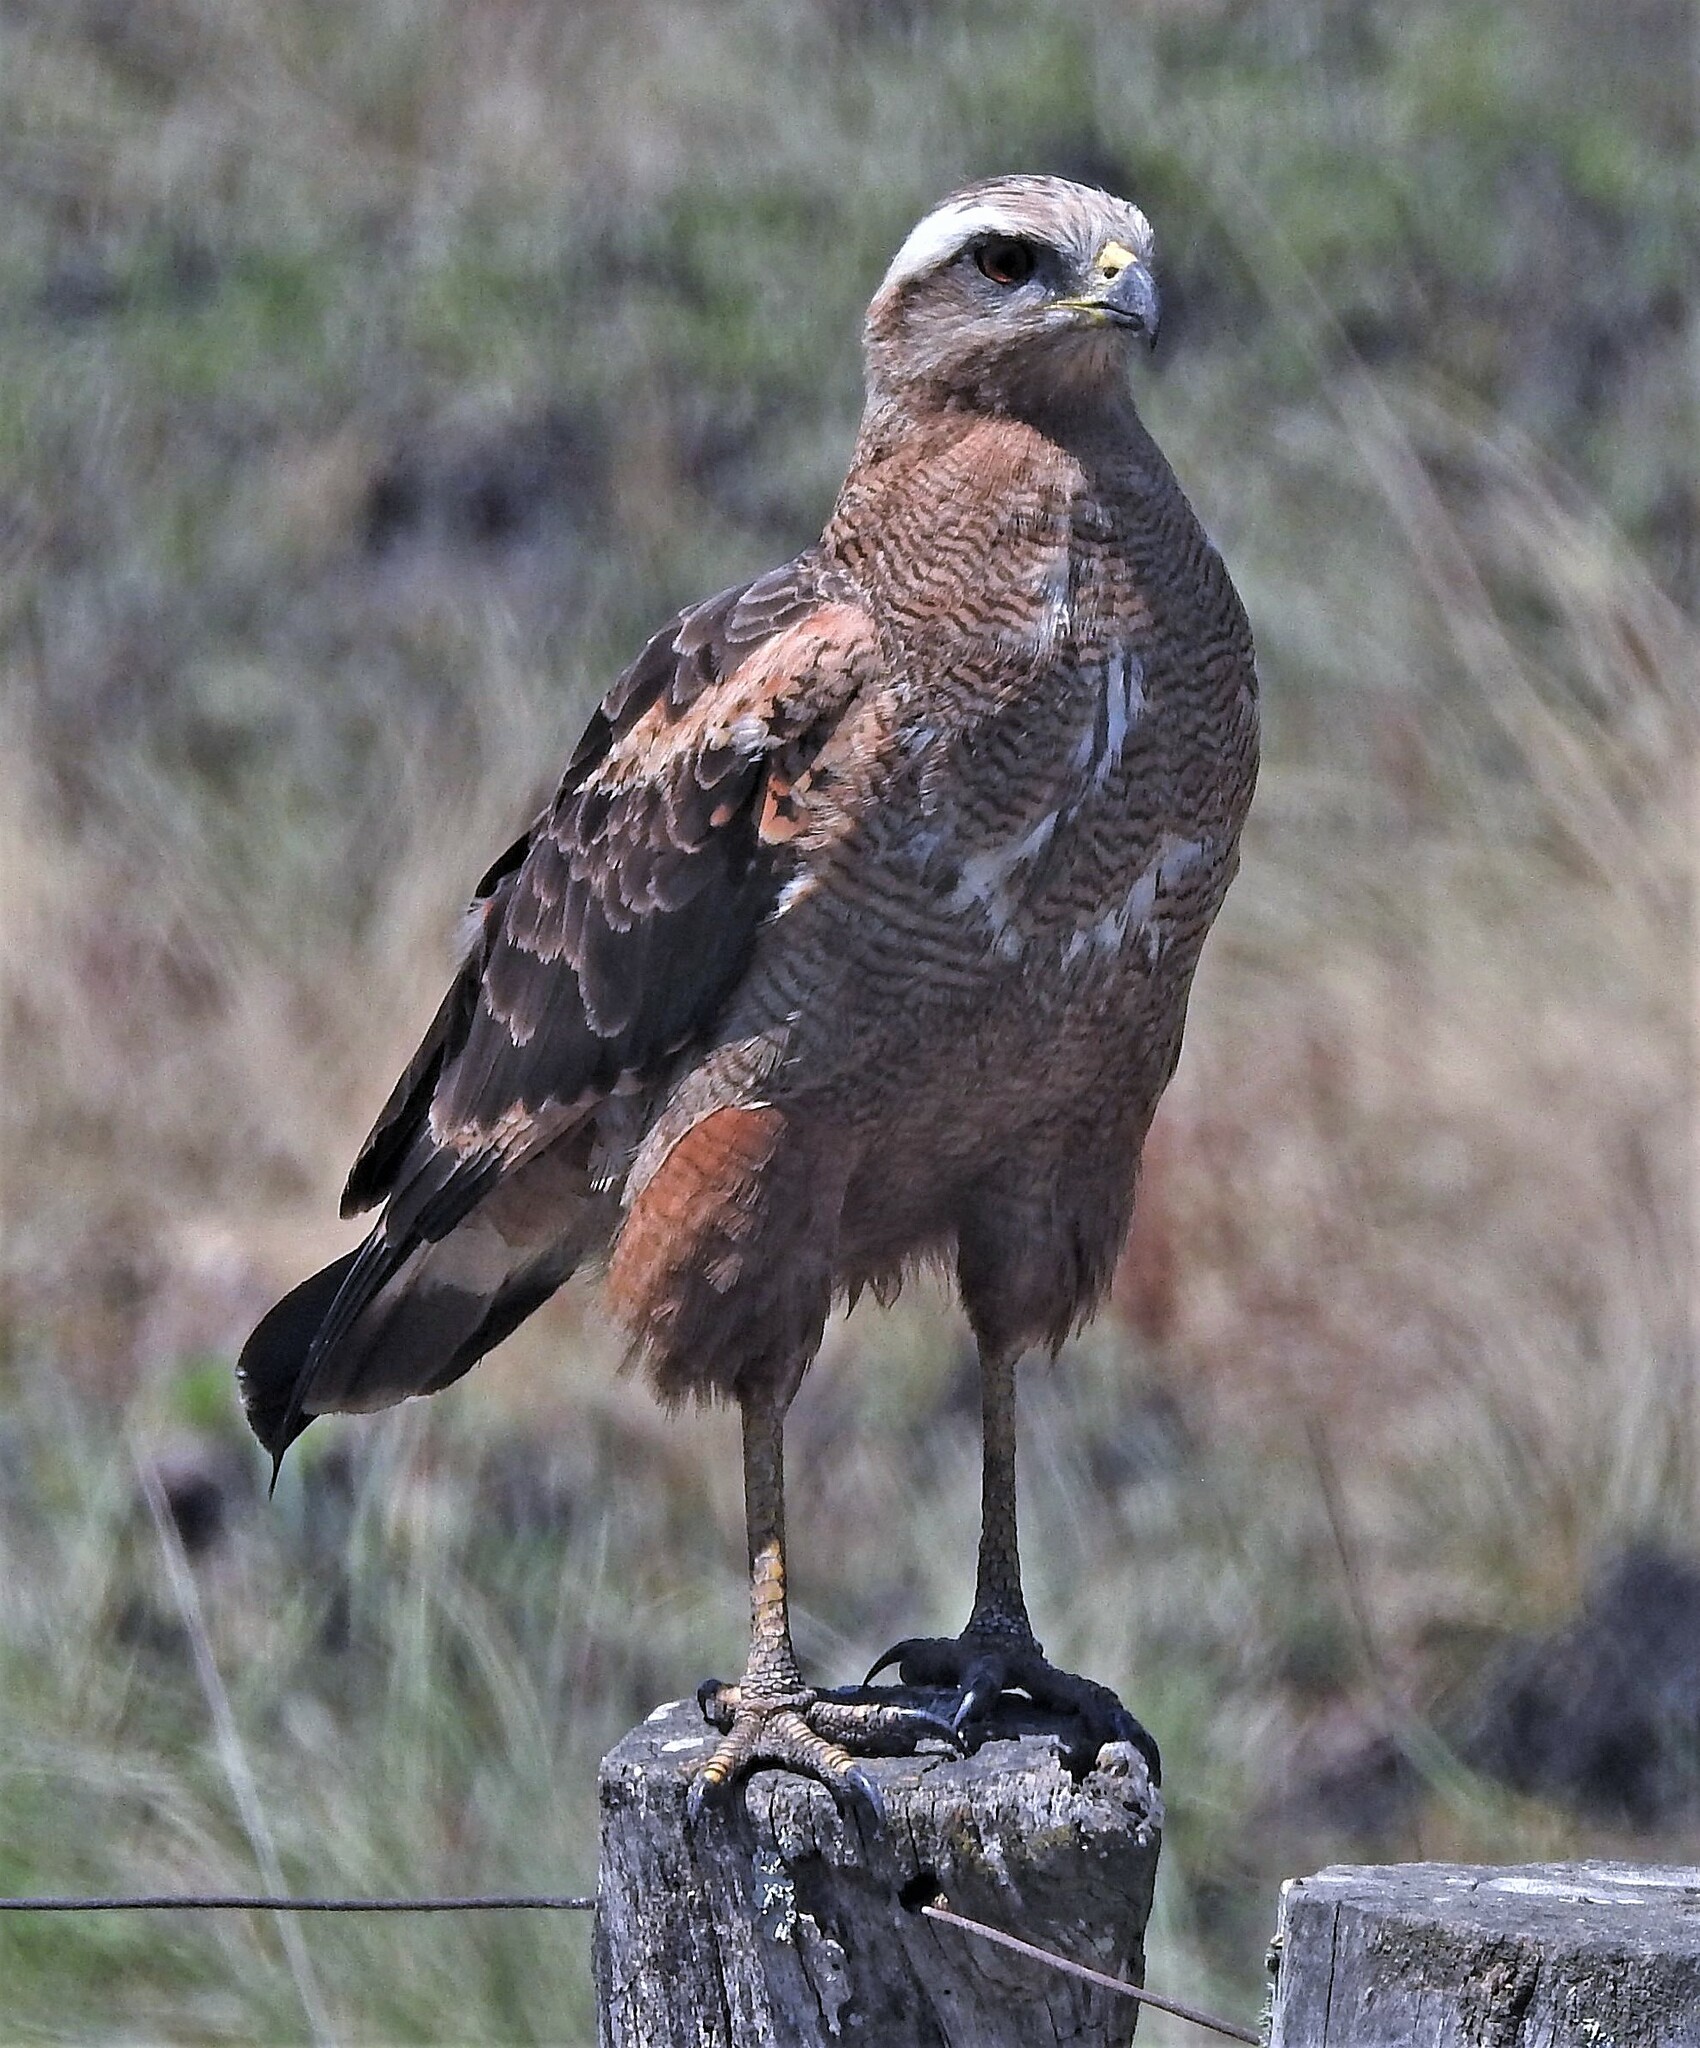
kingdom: Animalia
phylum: Chordata
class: Aves
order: Accipitriformes
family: Accipitridae
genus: Buteogallus
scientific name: Buteogallus meridionalis
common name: Savanna hawk
